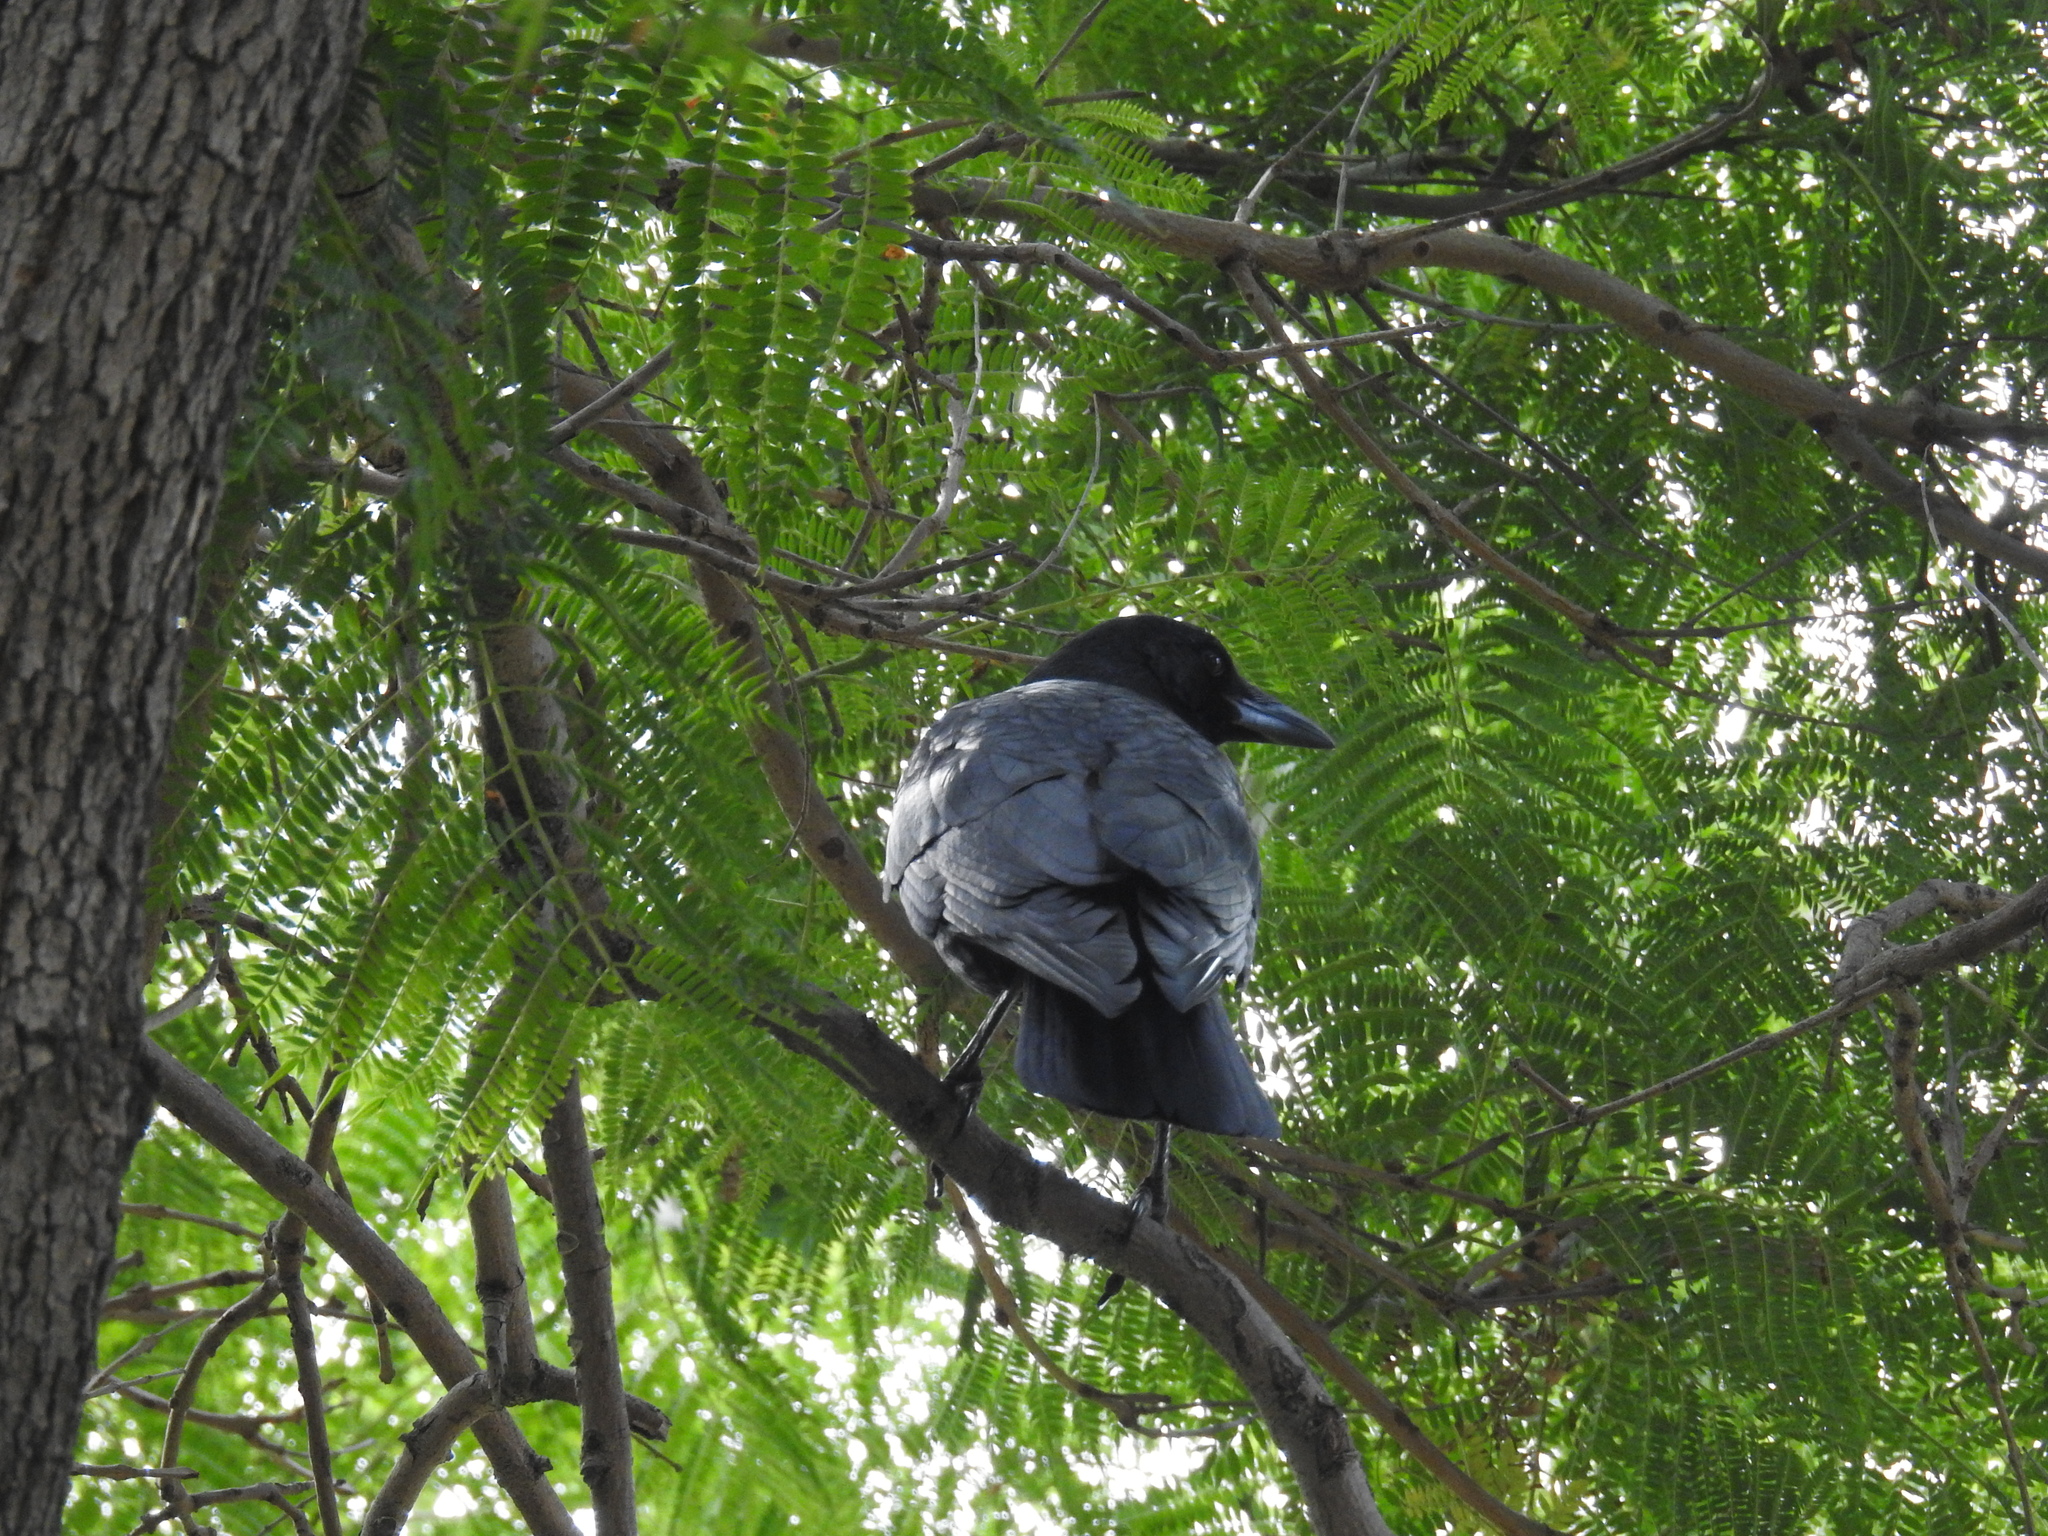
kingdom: Animalia
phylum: Chordata
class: Aves
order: Passeriformes
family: Corvidae
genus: Corvus
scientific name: Corvus brachyrhynchos
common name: American crow
